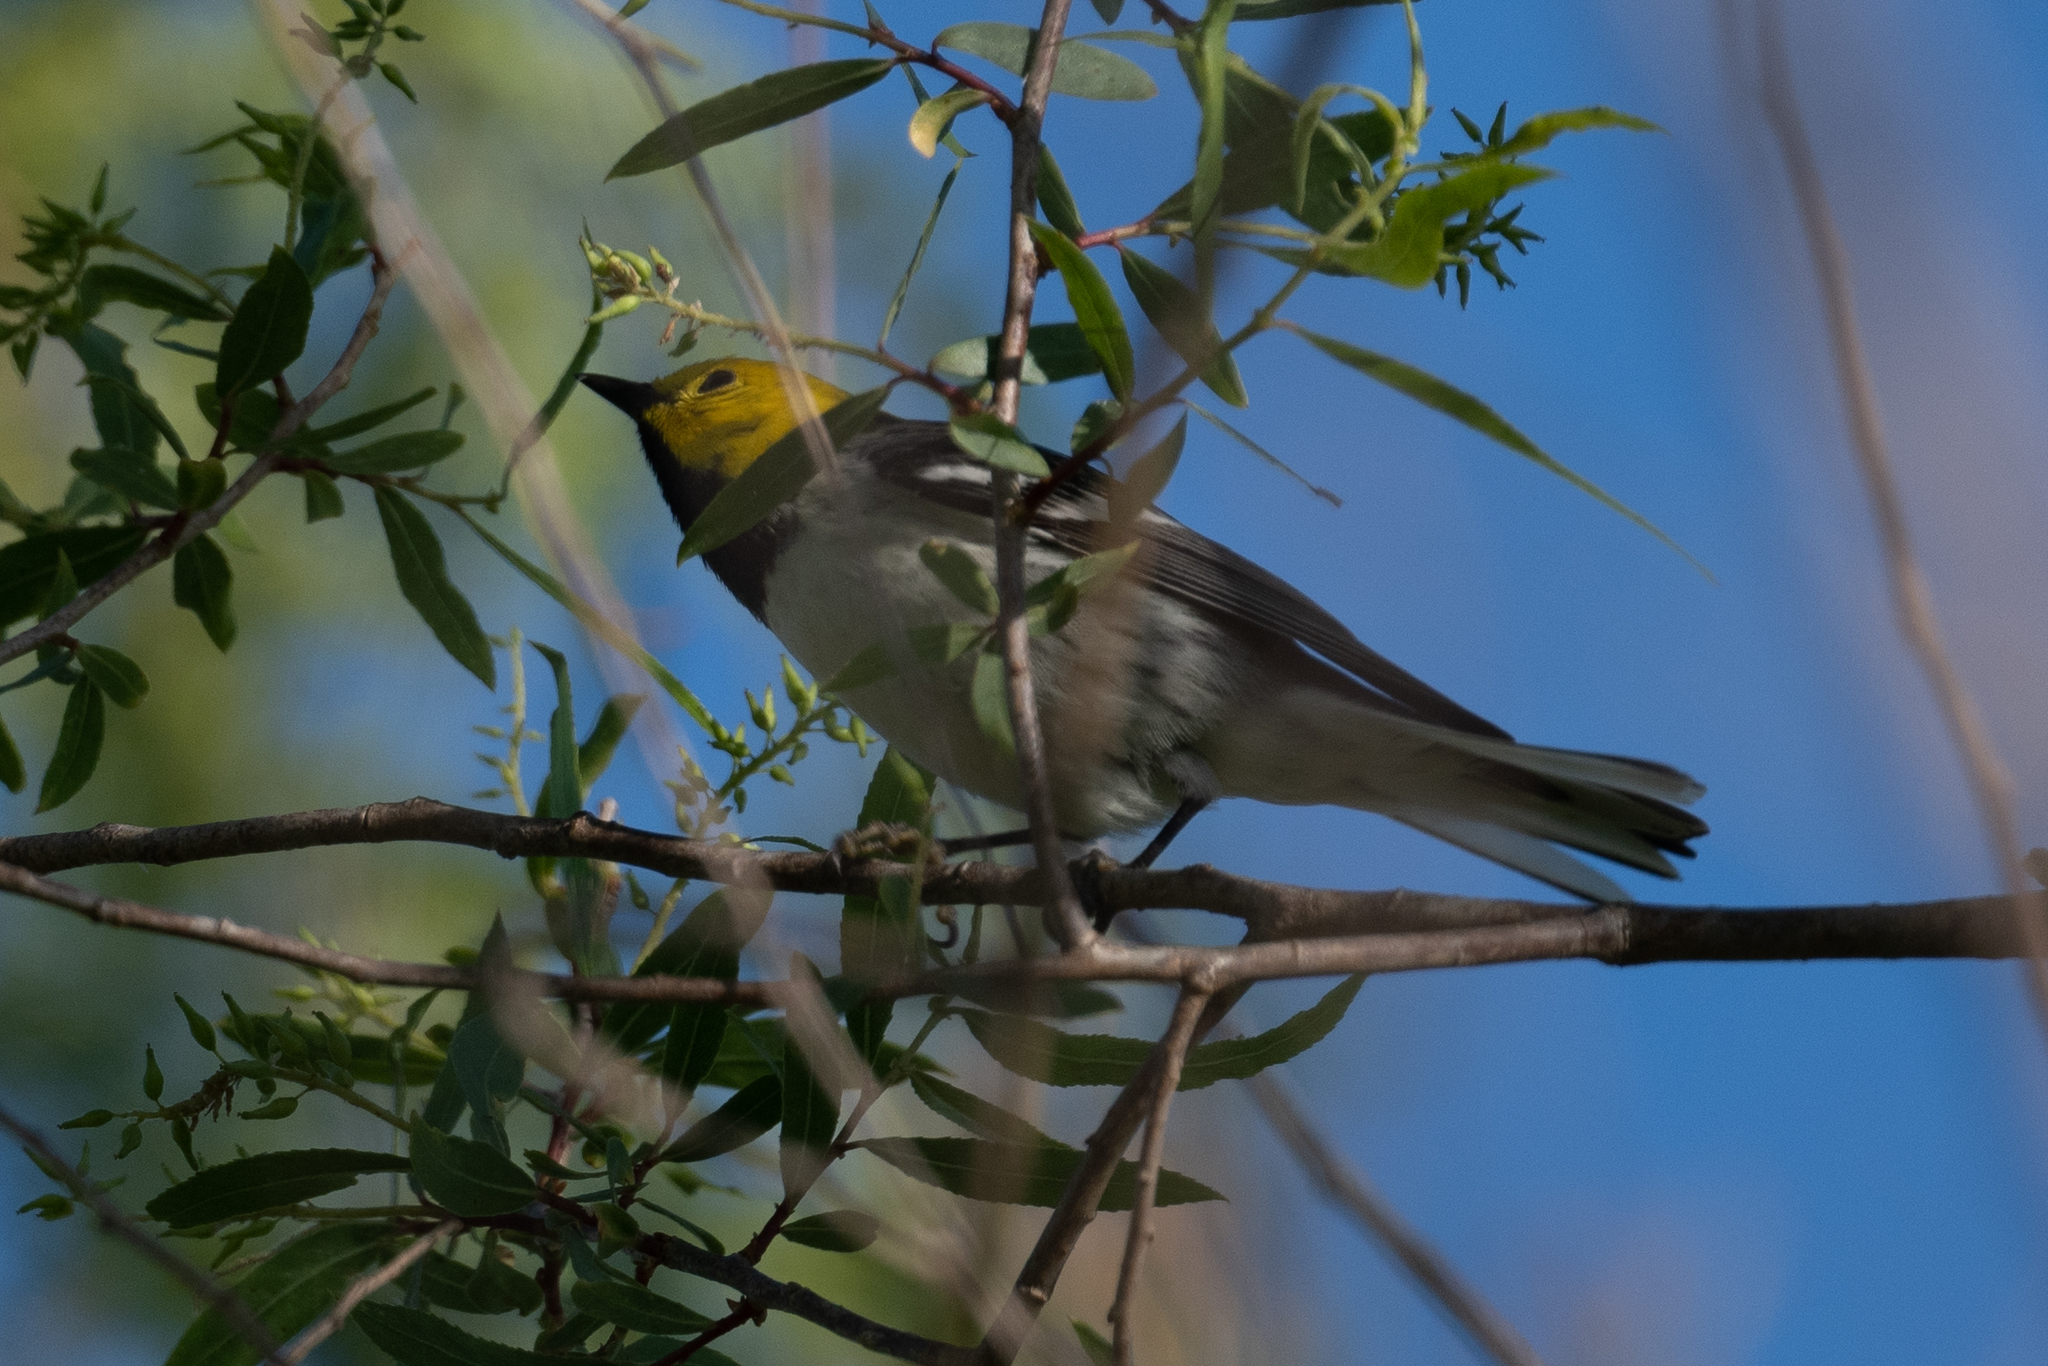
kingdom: Animalia
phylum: Chordata
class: Aves
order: Passeriformes
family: Parulidae
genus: Setophaga
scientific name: Setophaga occidentalis
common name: Hermit warbler
